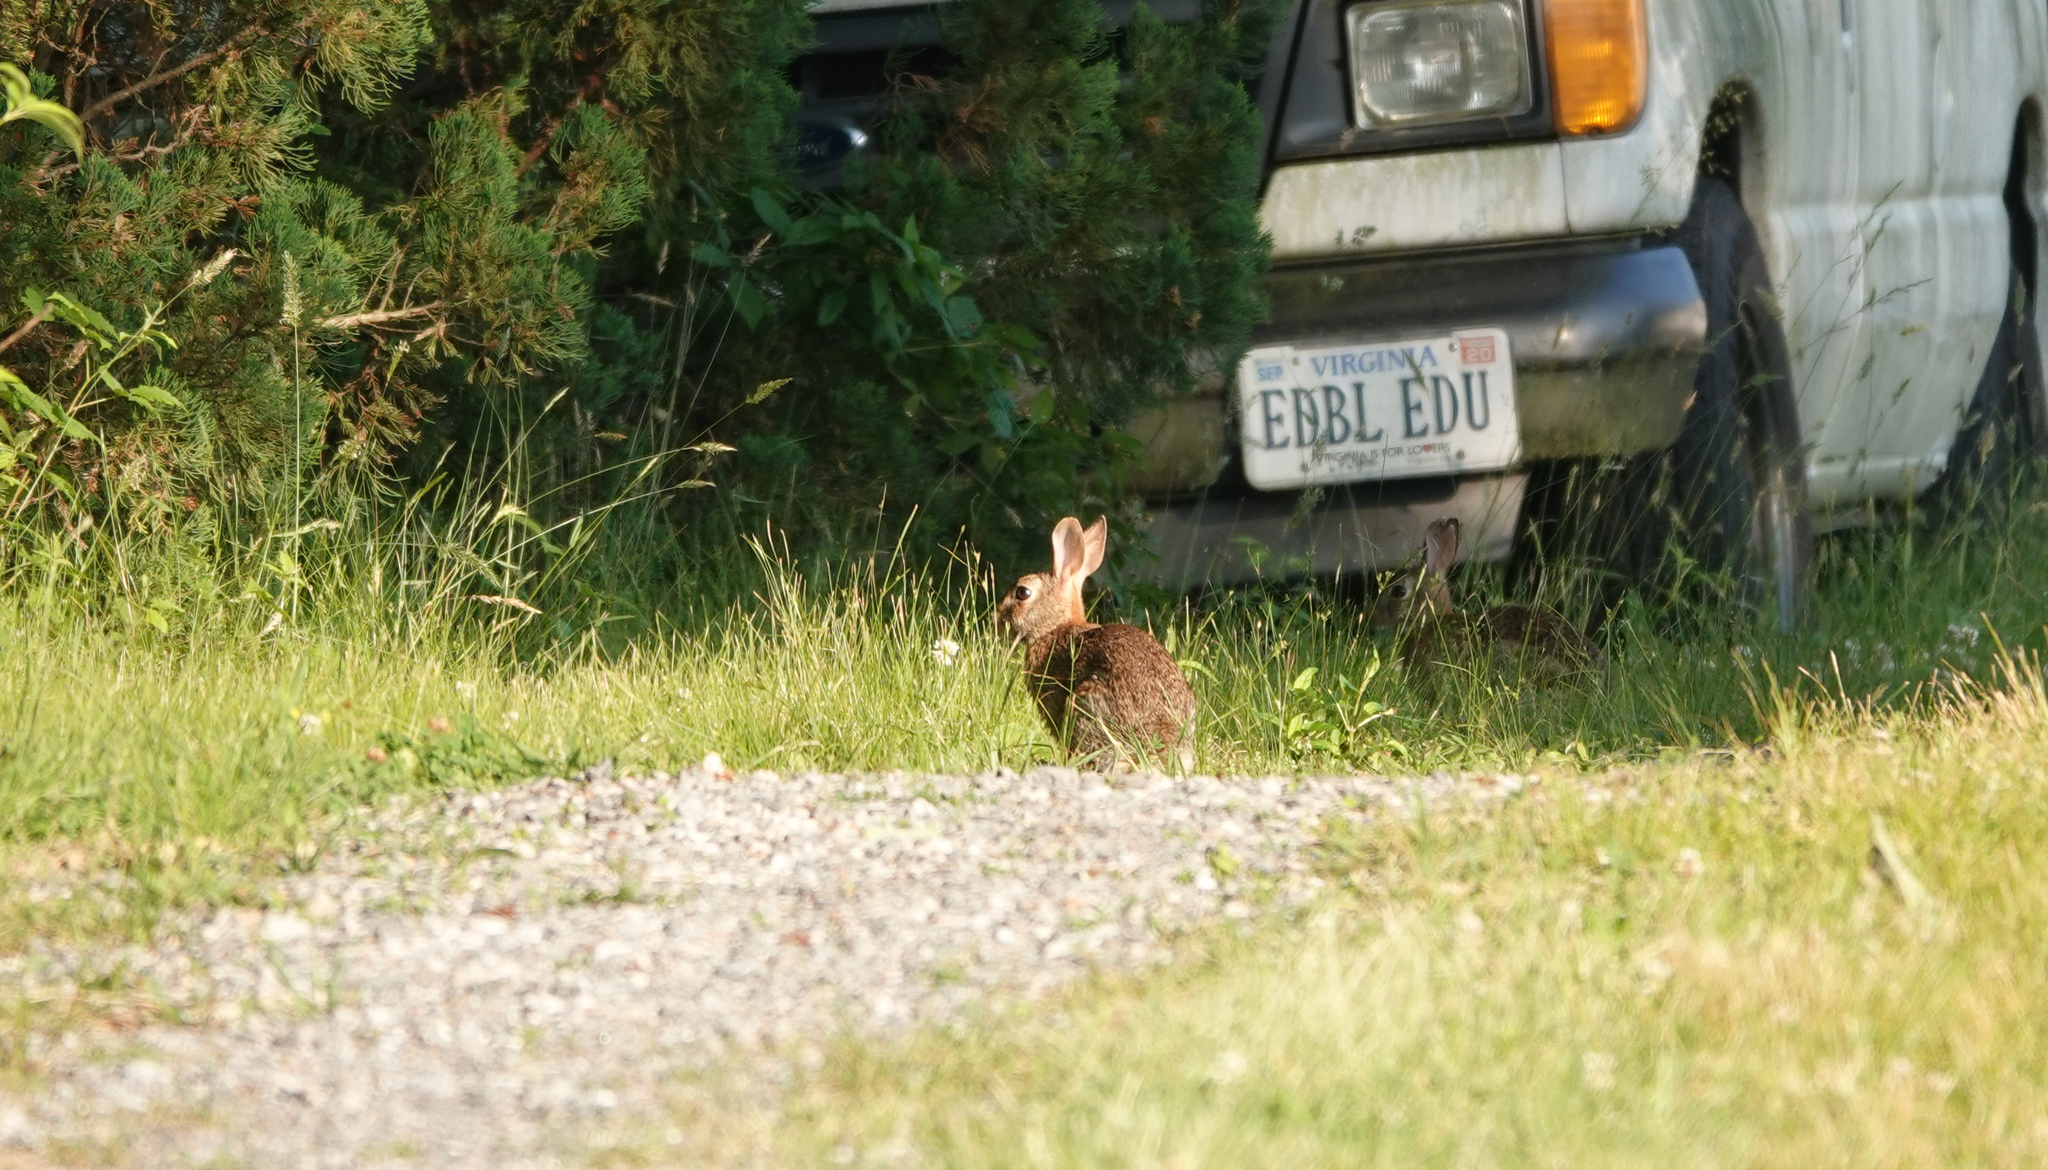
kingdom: Animalia
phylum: Chordata
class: Mammalia
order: Lagomorpha
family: Leporidae
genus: Sylvilagus
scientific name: Sylvilagus floridanus
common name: Eastern cottontail
